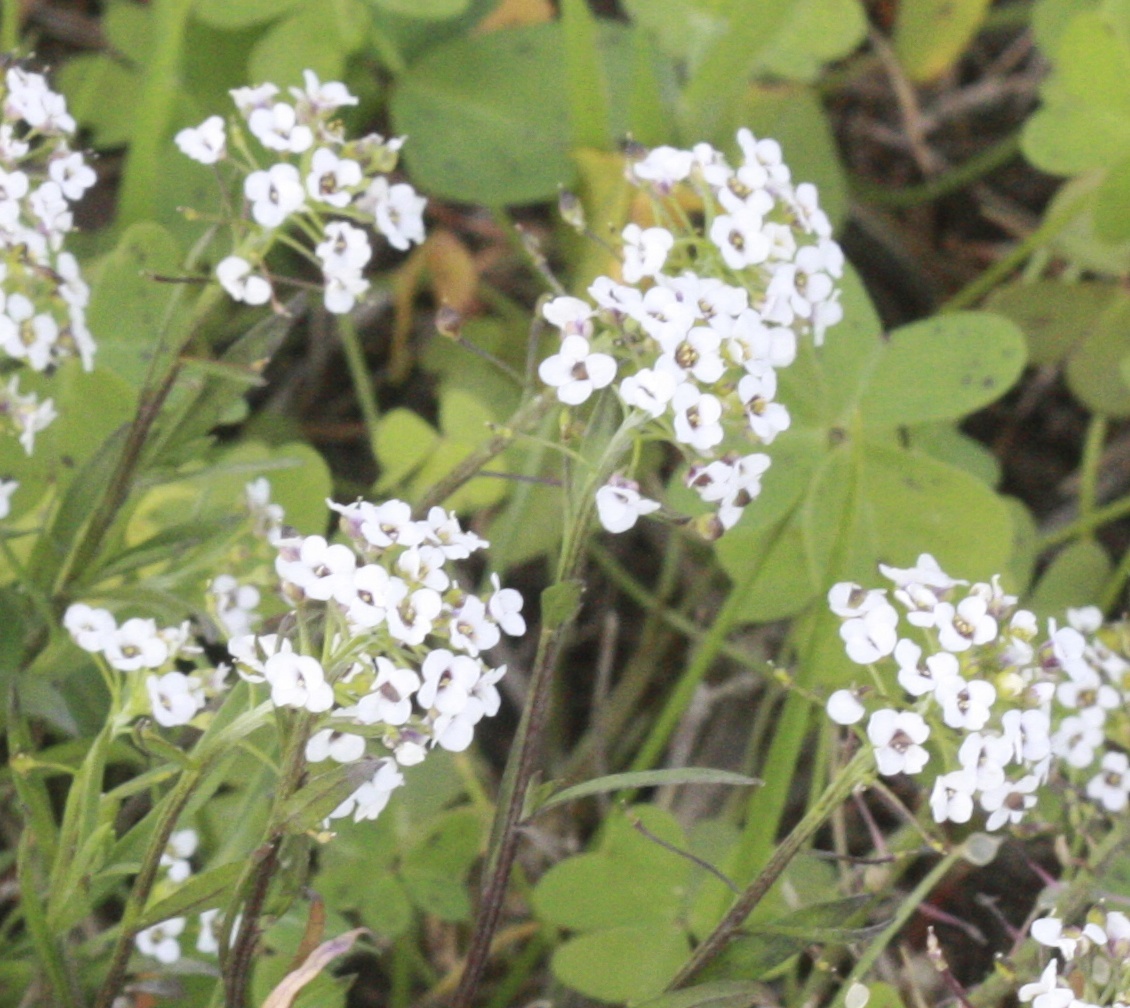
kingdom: Plantae
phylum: Tracheophyta
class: Magnoliopsida
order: Brassicales
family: Brassicaceae
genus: Lobularia
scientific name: Lobularia maritima
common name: Sweet alison
